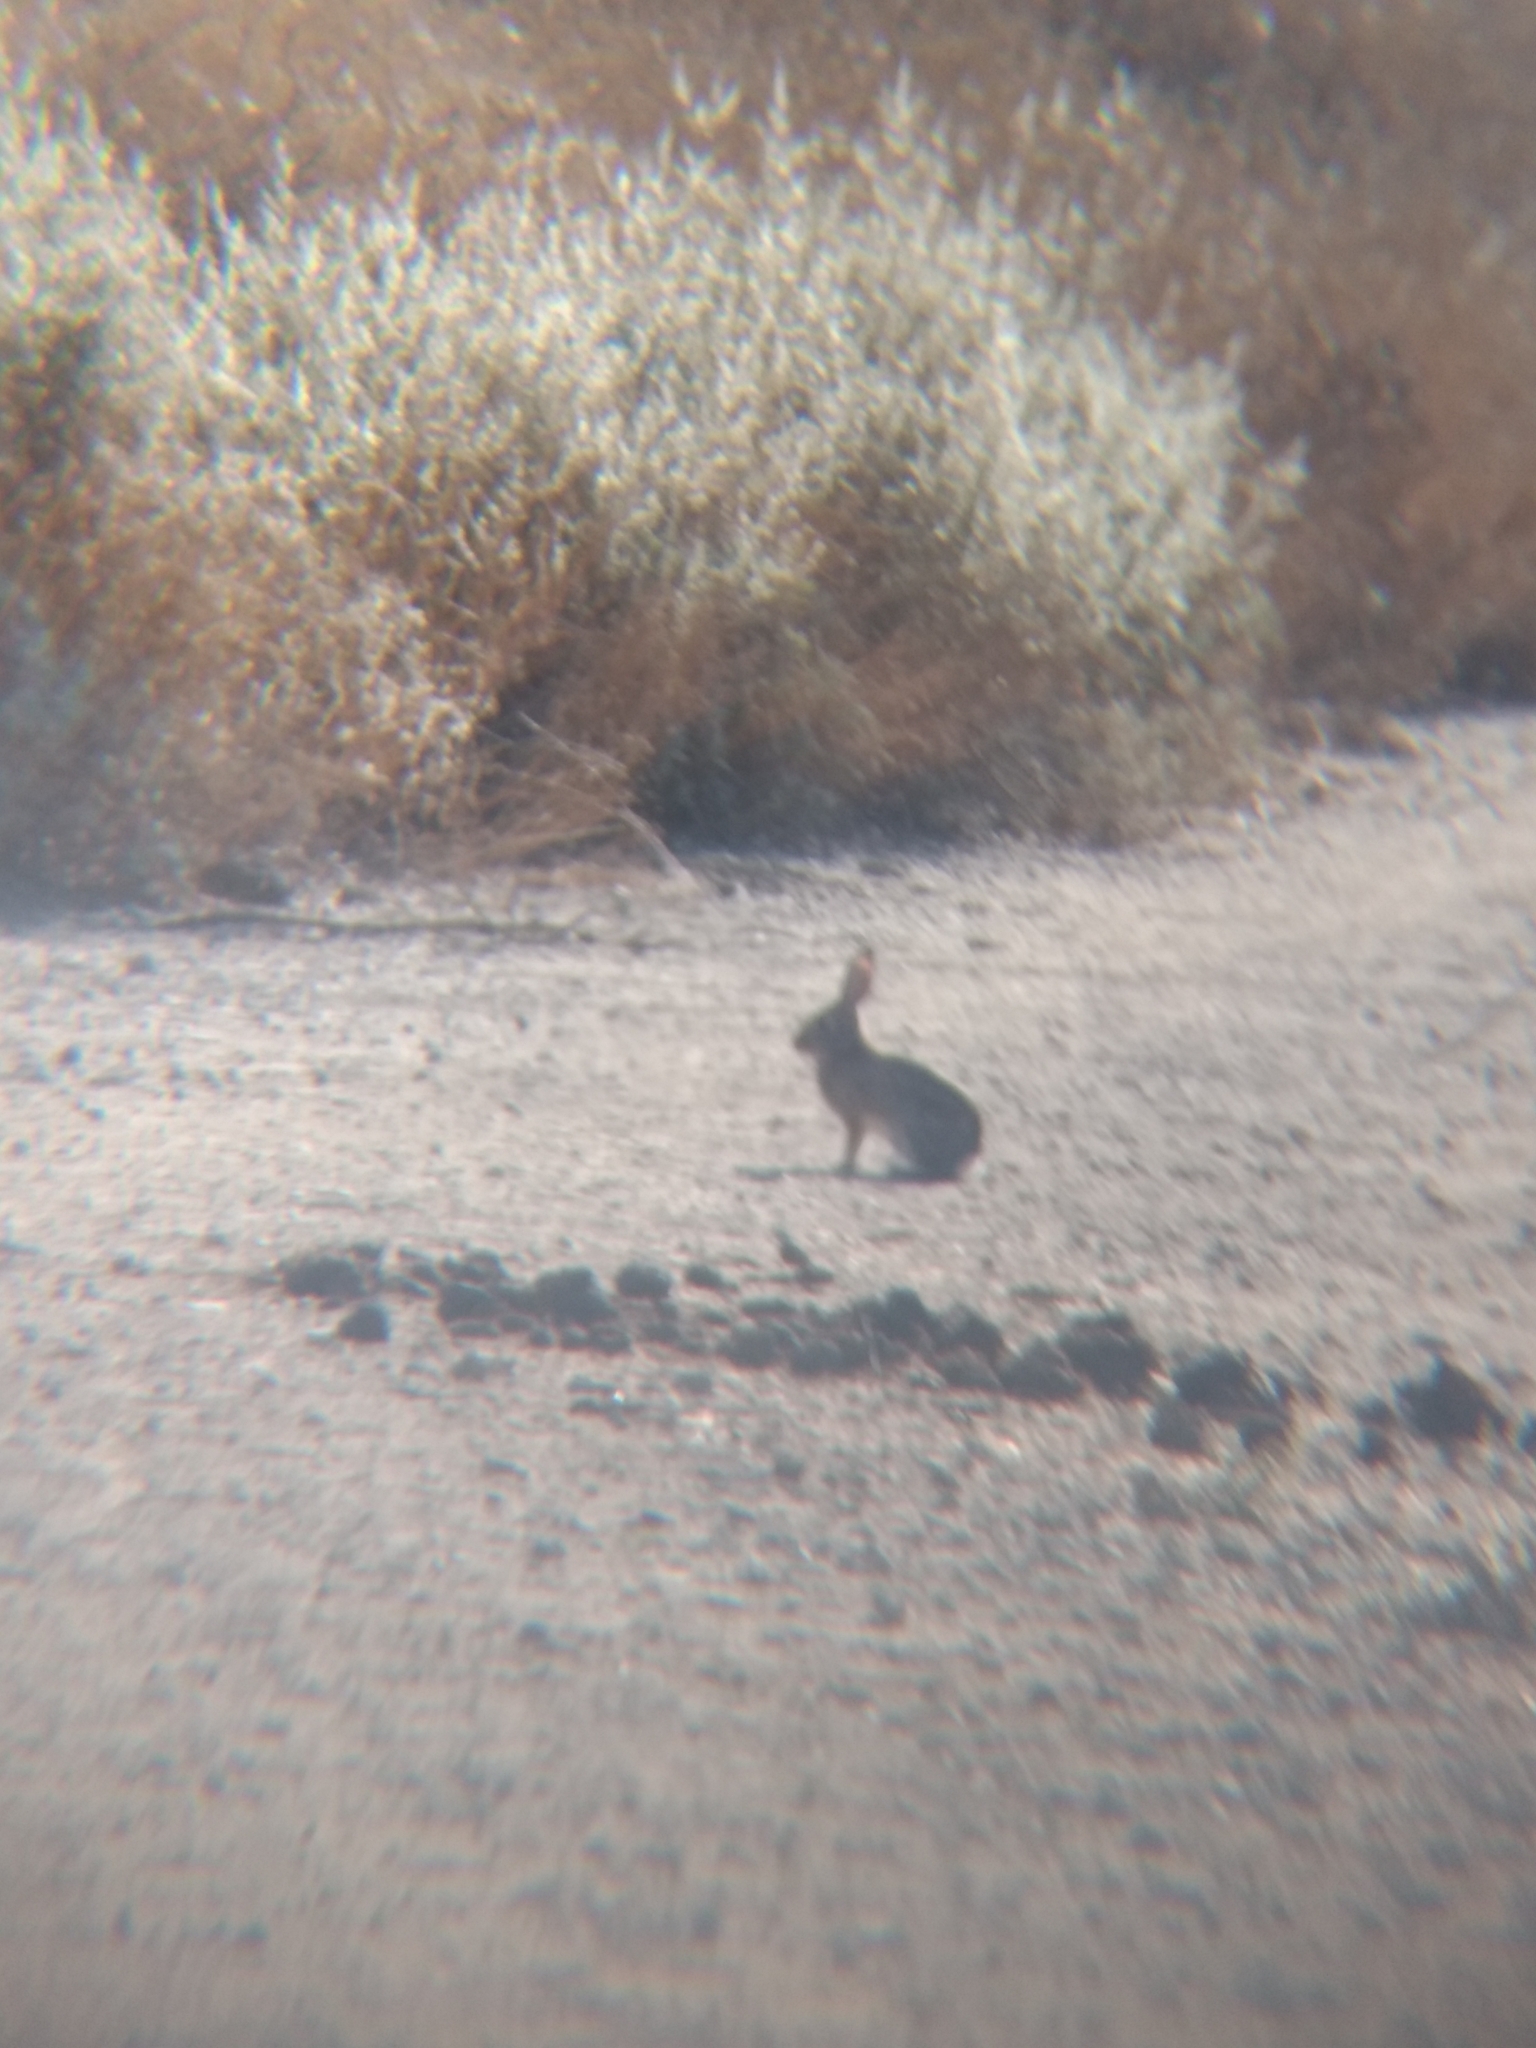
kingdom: Animalia
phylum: Chordata
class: Mammalia
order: Lagomorpha
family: Leporidae
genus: Sylvilagus
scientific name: Sylvilagus audubonii
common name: Desert cottontail
